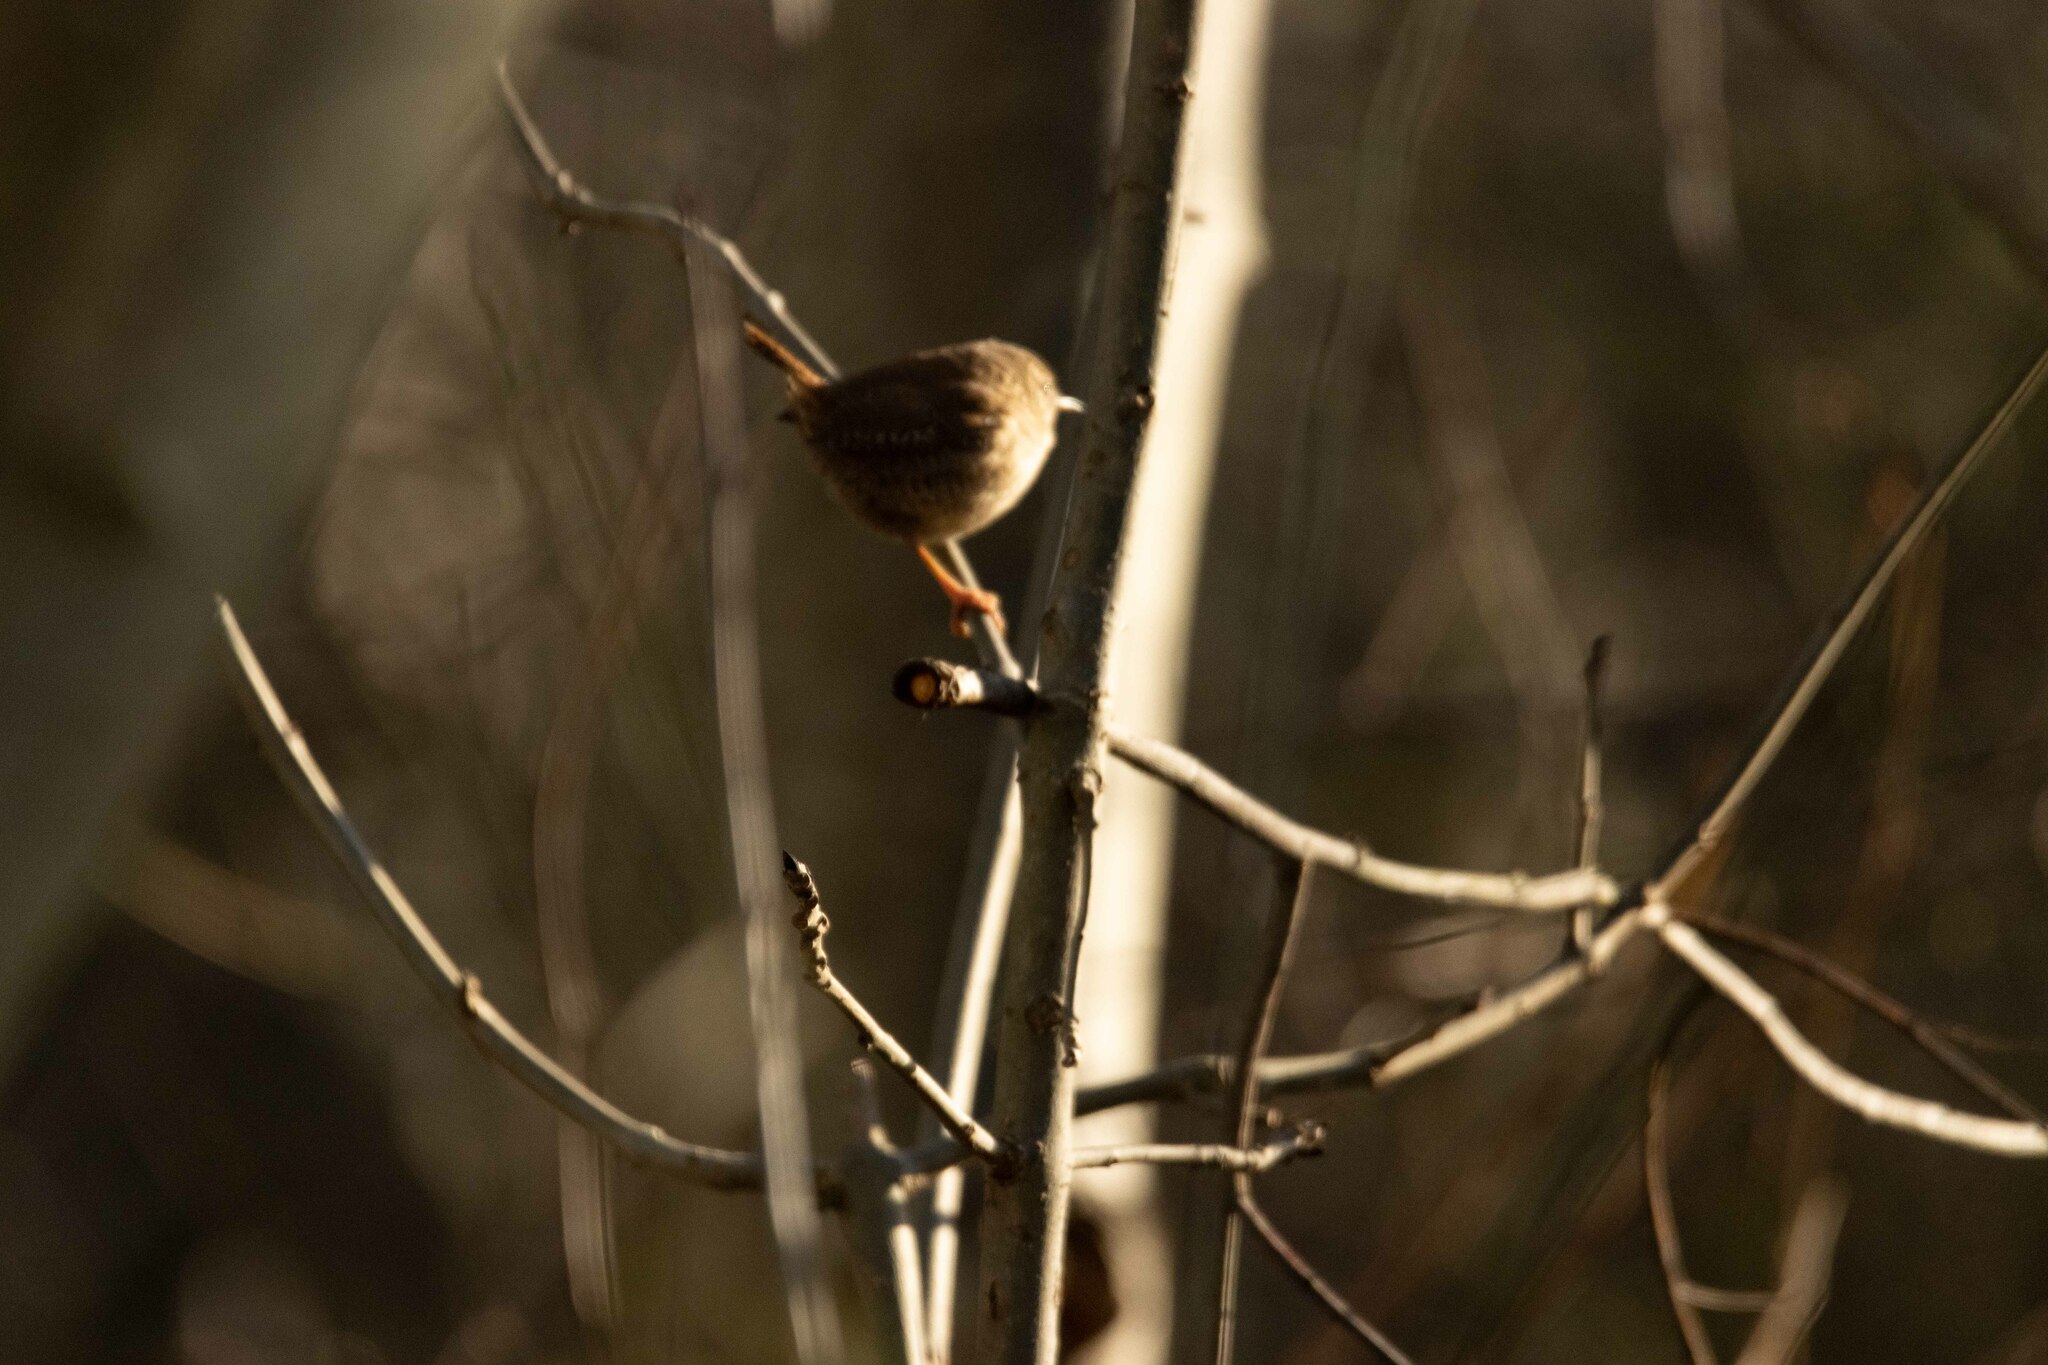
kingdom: Animalia
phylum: Chordata
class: Aves
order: Passeriformes
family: Troglodytidae
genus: Troglodytes
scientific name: Troglodytes troglodytes
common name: Eurasian wren
